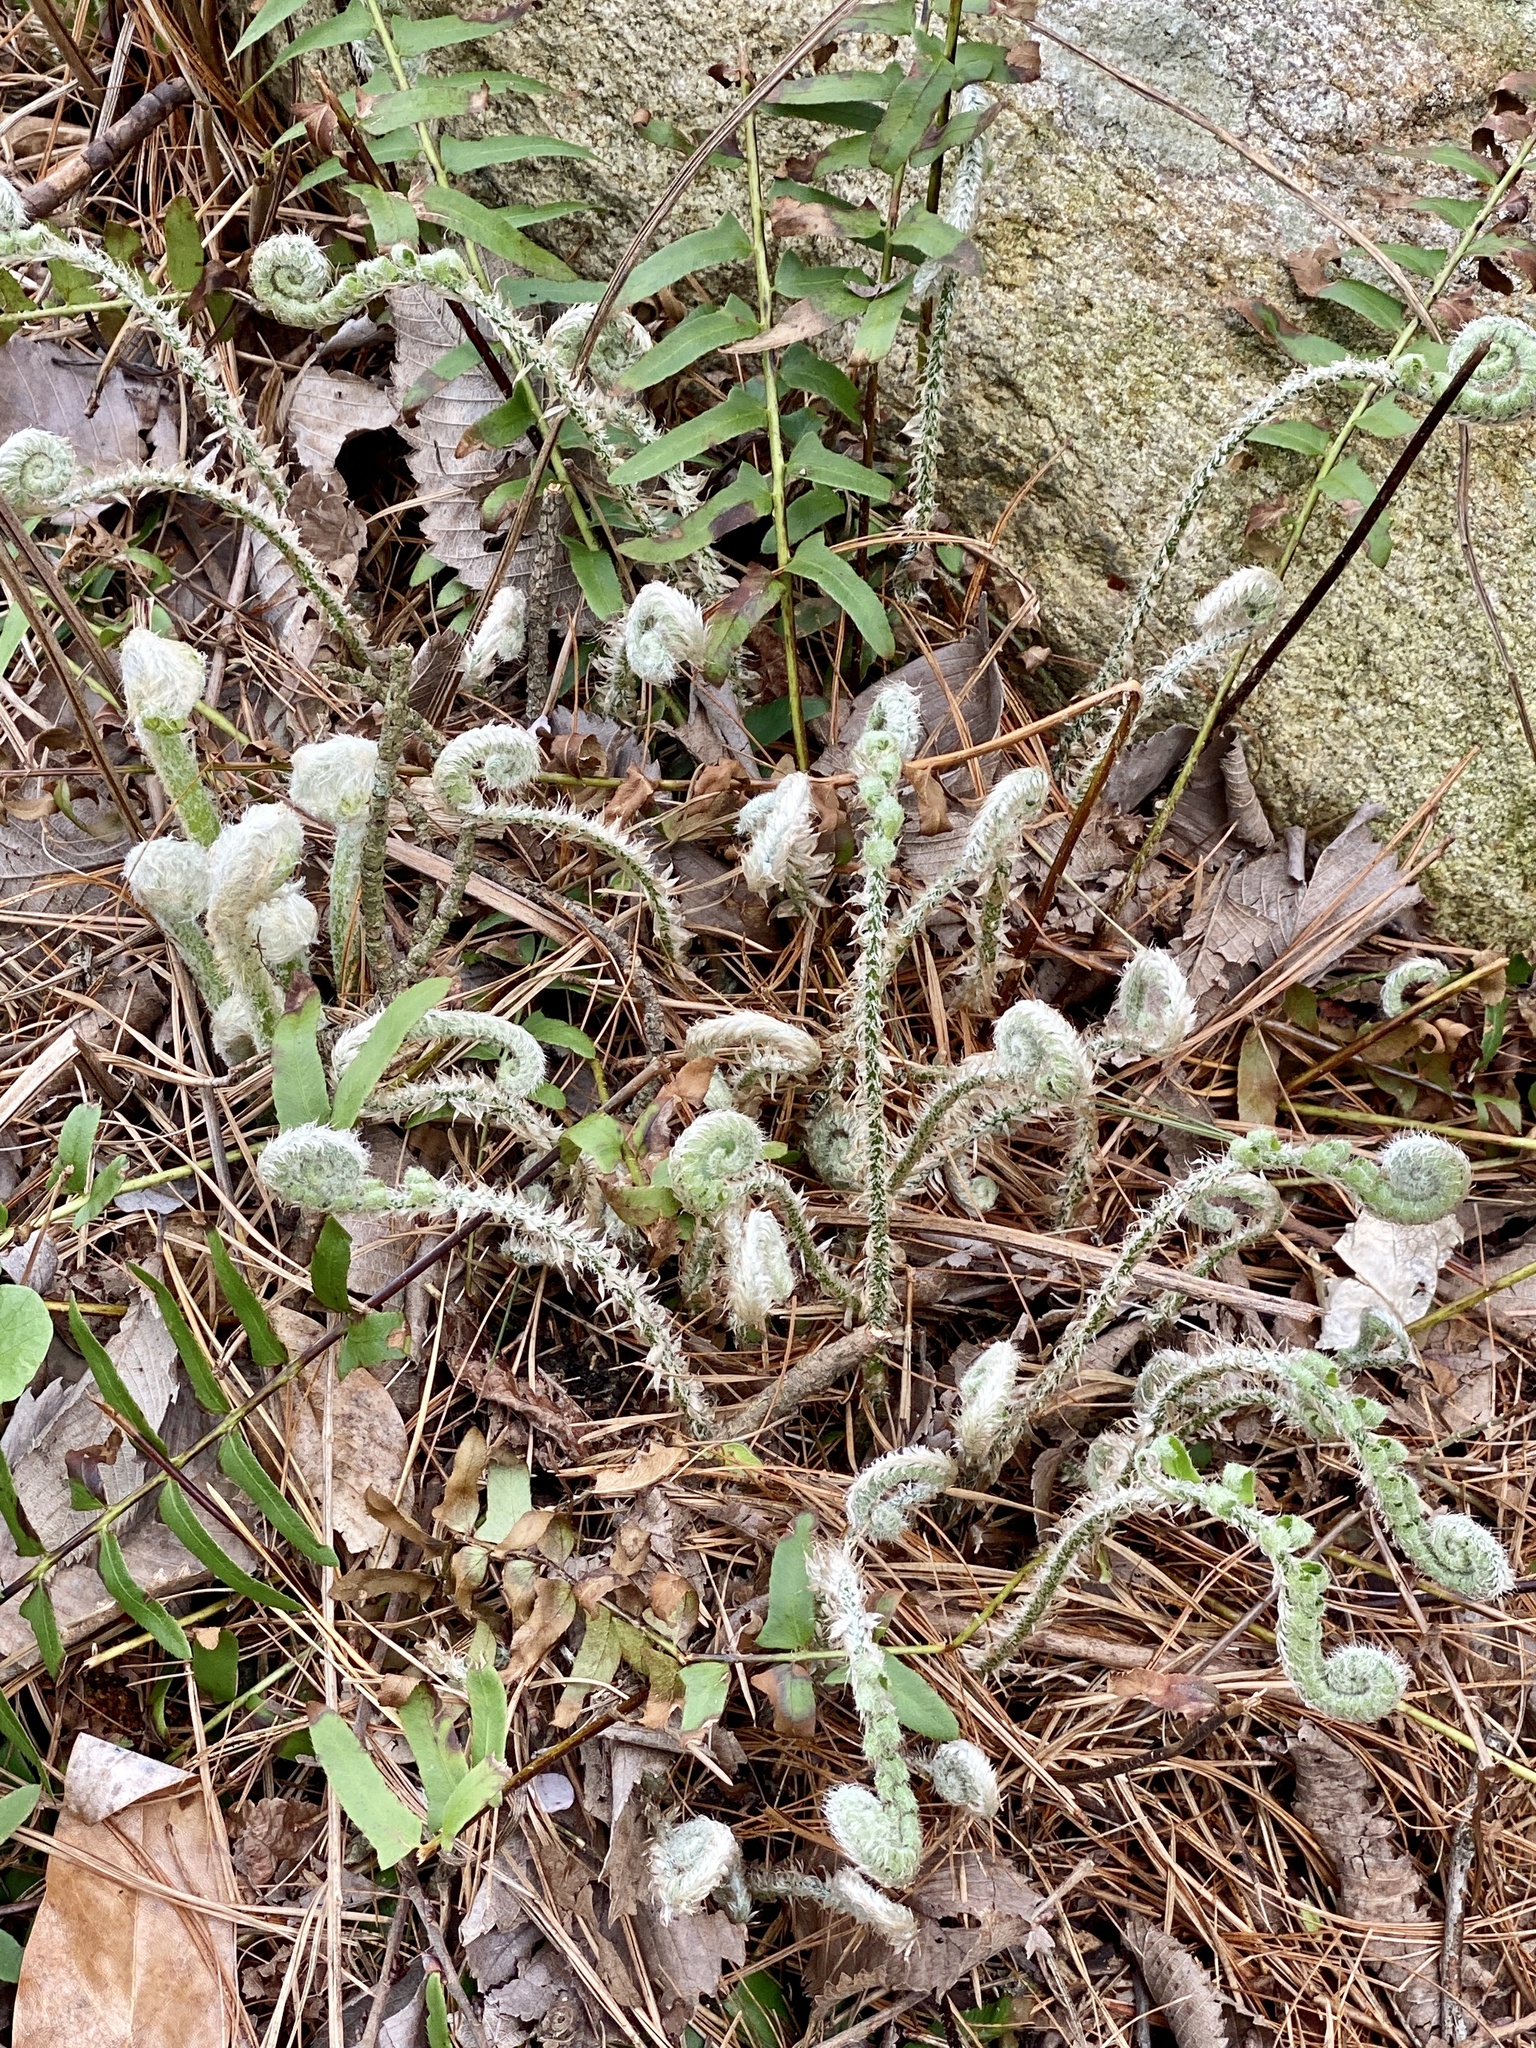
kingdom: Plantae
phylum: Tracheophyta
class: Polypodiopsida
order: Polypodiales
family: Dryopteridaceae
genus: Polystichum
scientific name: Polystichum acrostichoides
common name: Christmas fern
